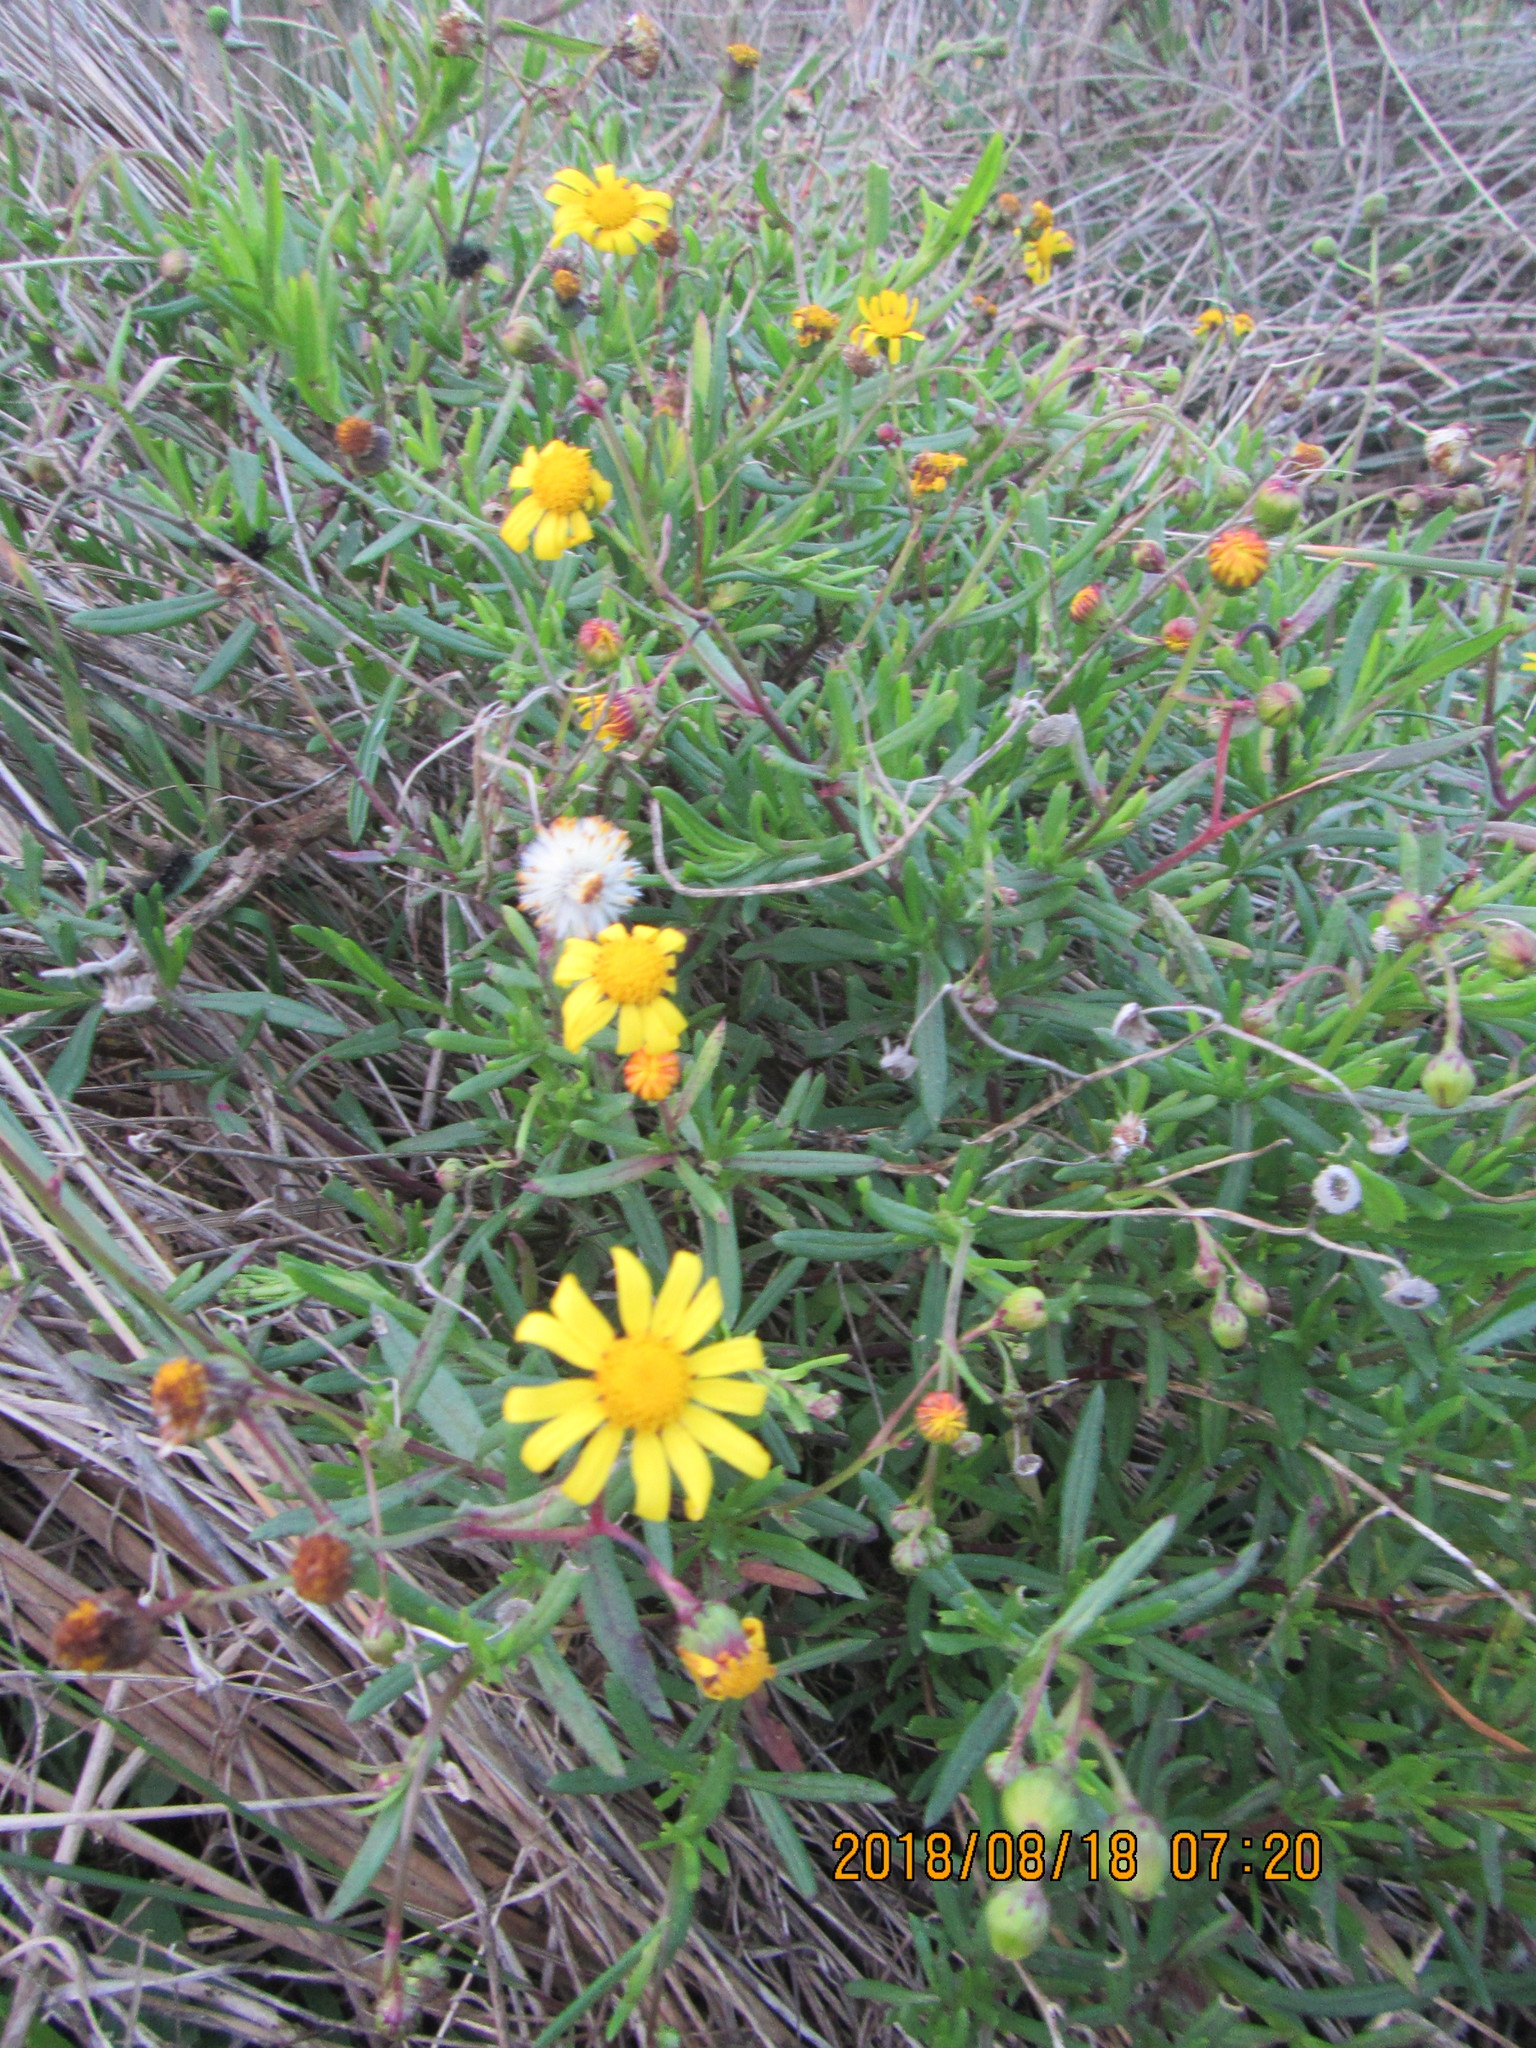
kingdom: Plantae
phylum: Tracheophyta
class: Magnoliopsida
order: Asterales
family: Asteraceae
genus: Senecio
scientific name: Senecio skirrhodon
